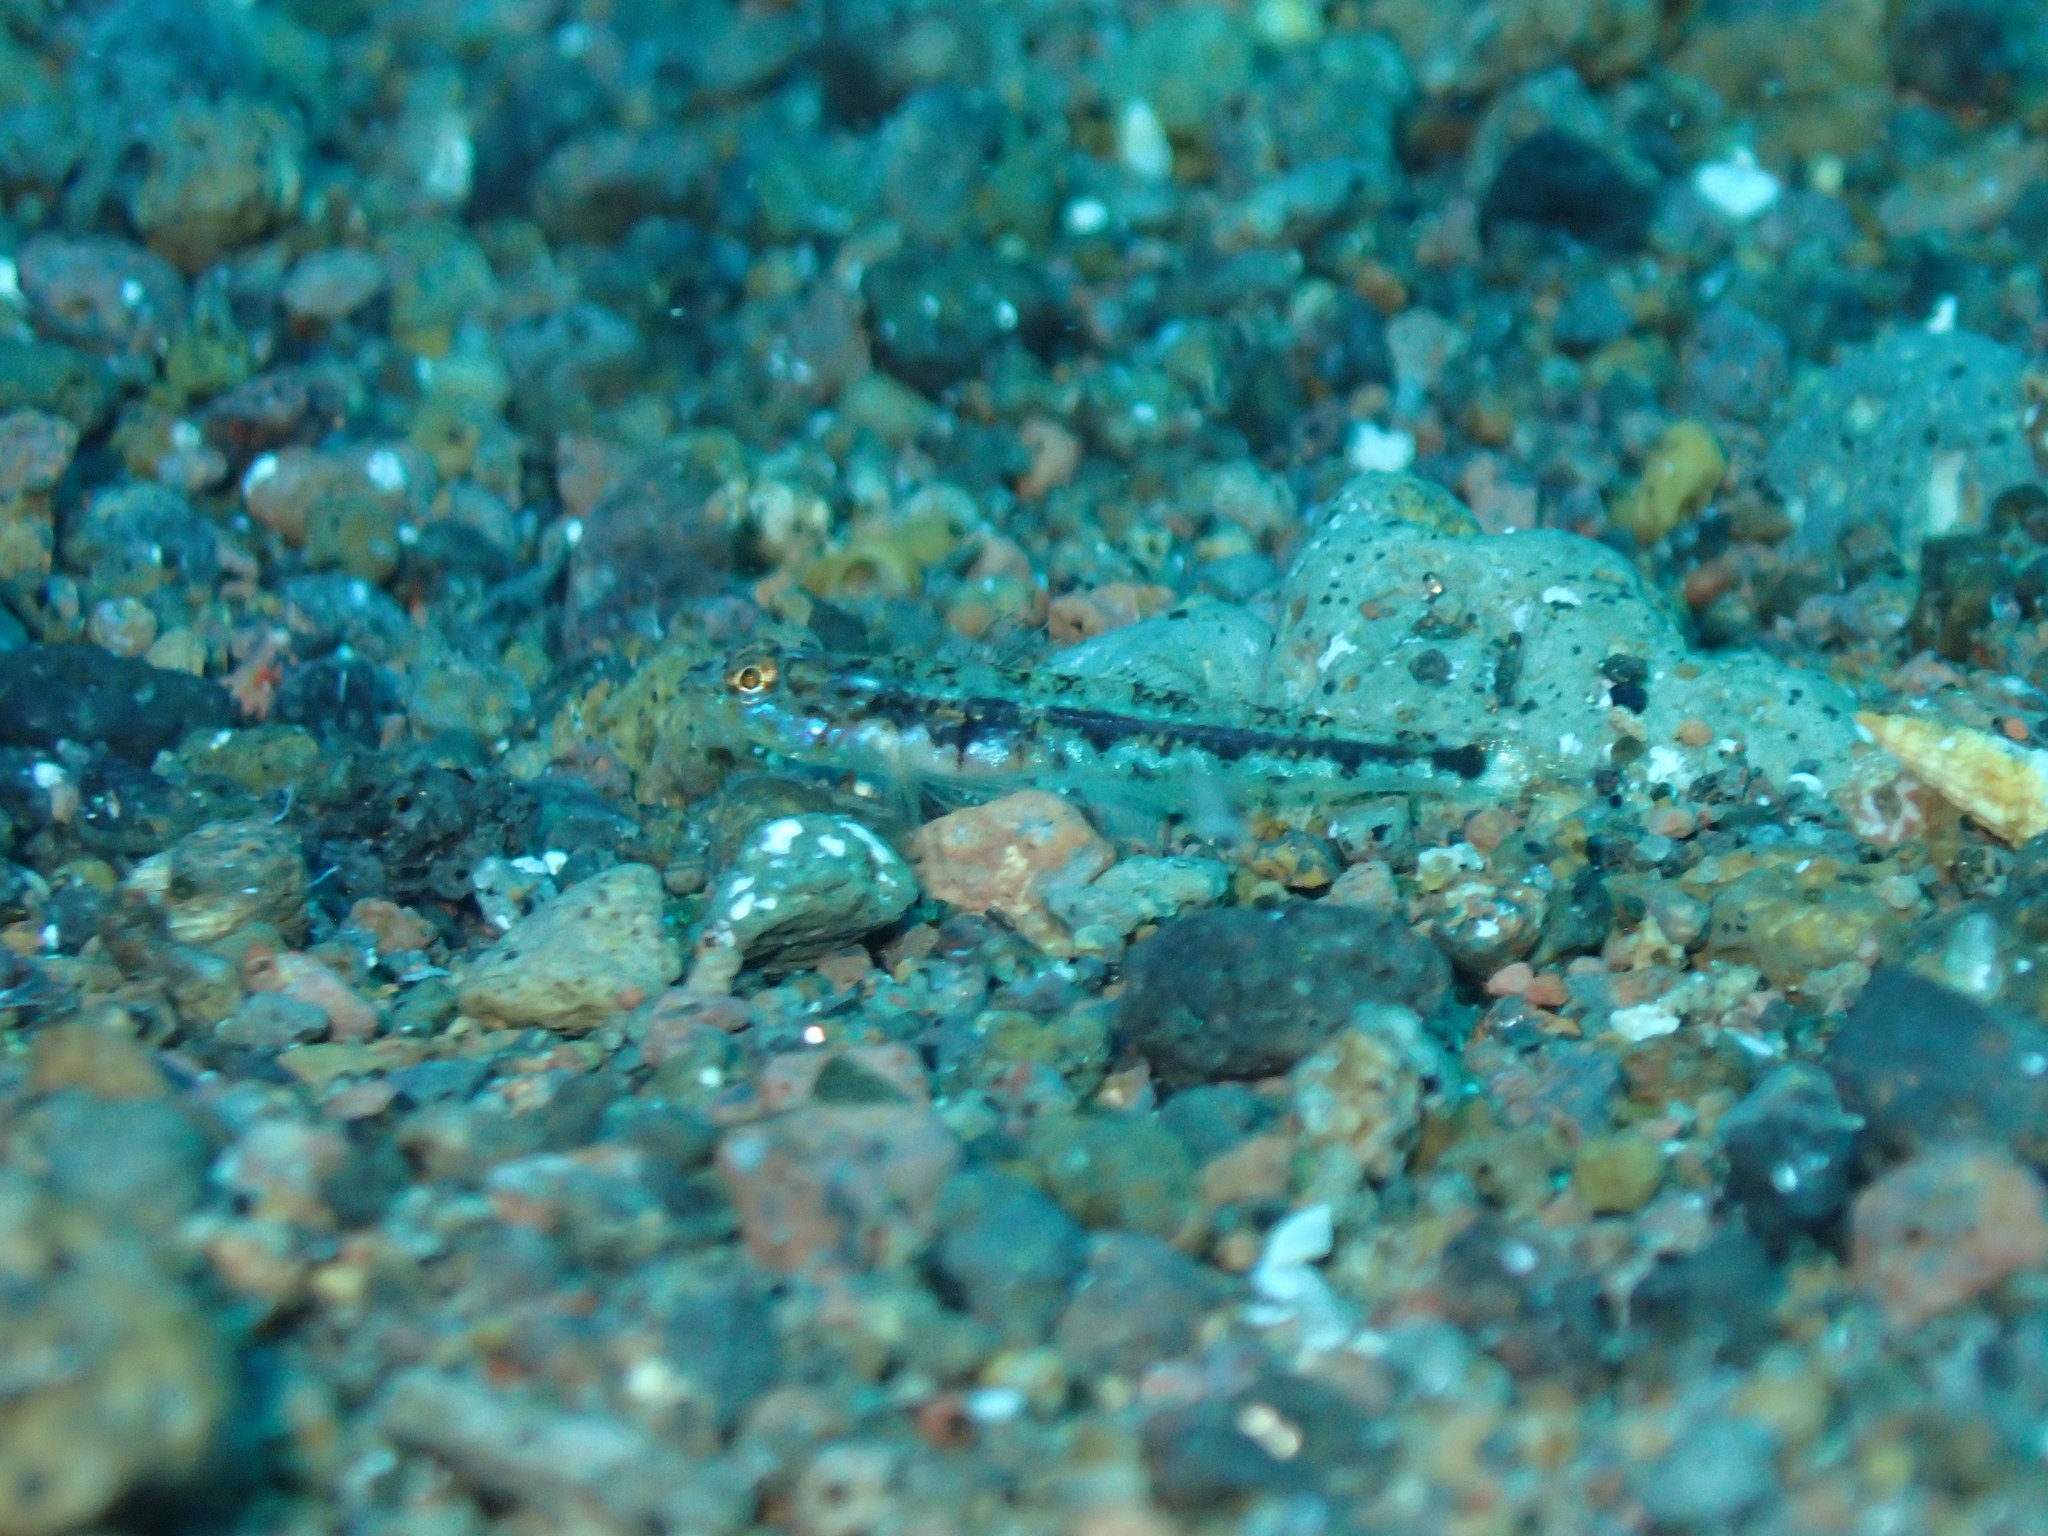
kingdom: Animalia
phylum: Chordata
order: Perciformes
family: Gobiidae
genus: Pomatoschistus
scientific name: Pomatoschistus bathi
